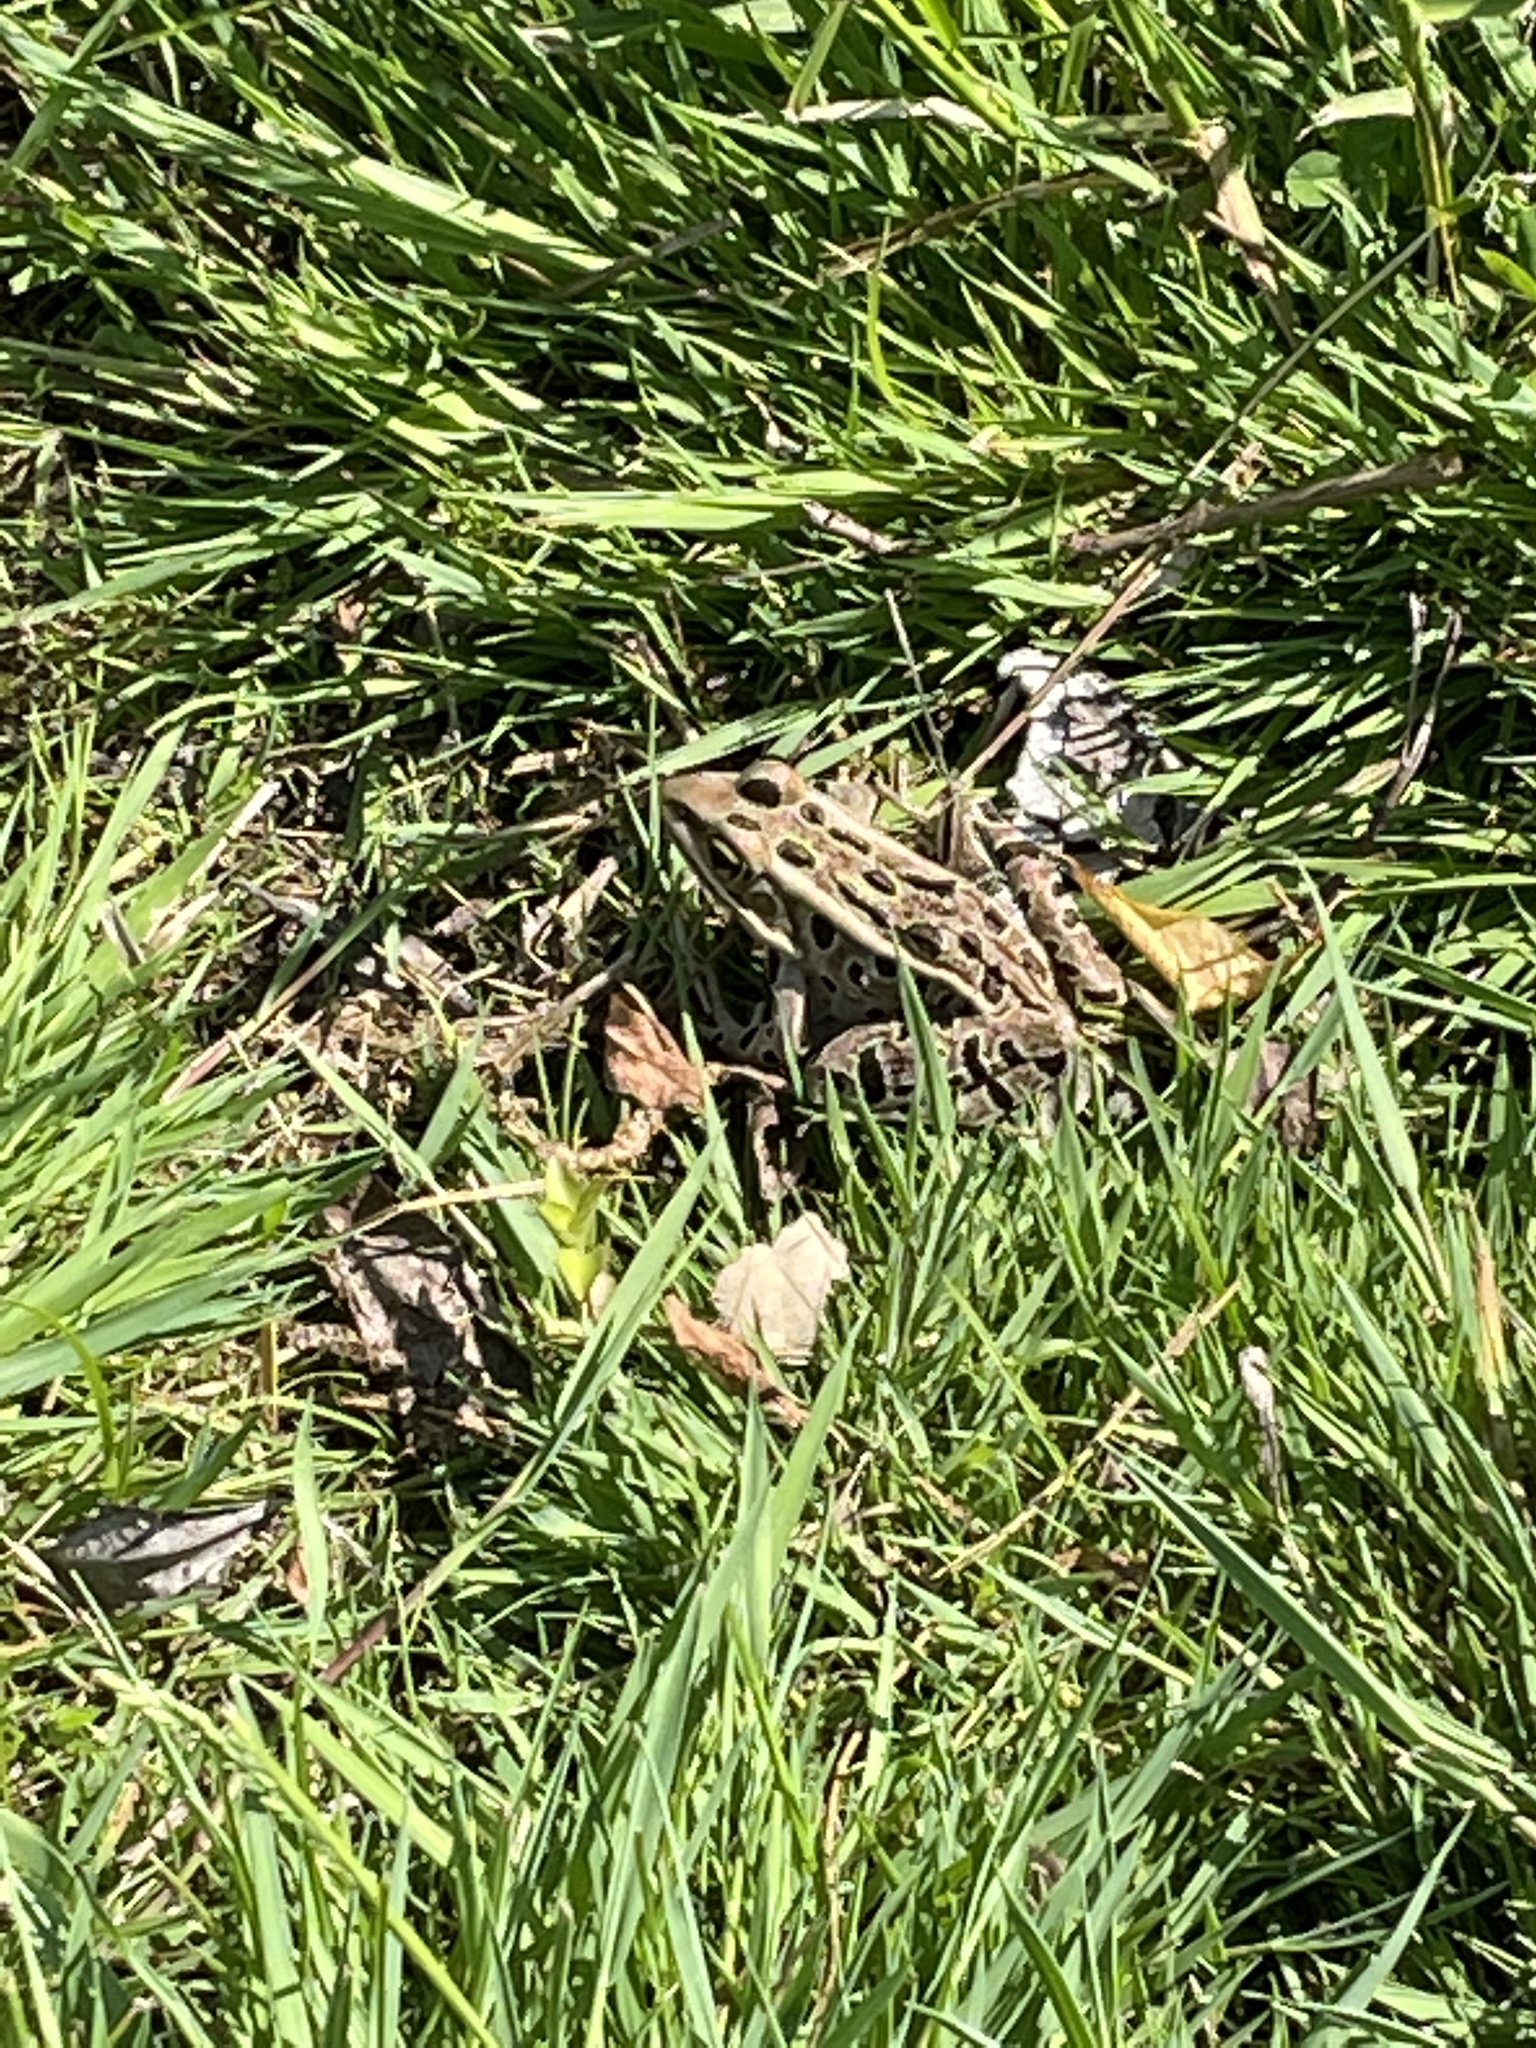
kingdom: Animalia
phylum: Chordata
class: Amphibia
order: Anura
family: Ranidae
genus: Lithobates
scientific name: Lithobates pipiens
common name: Northern leopard frog
